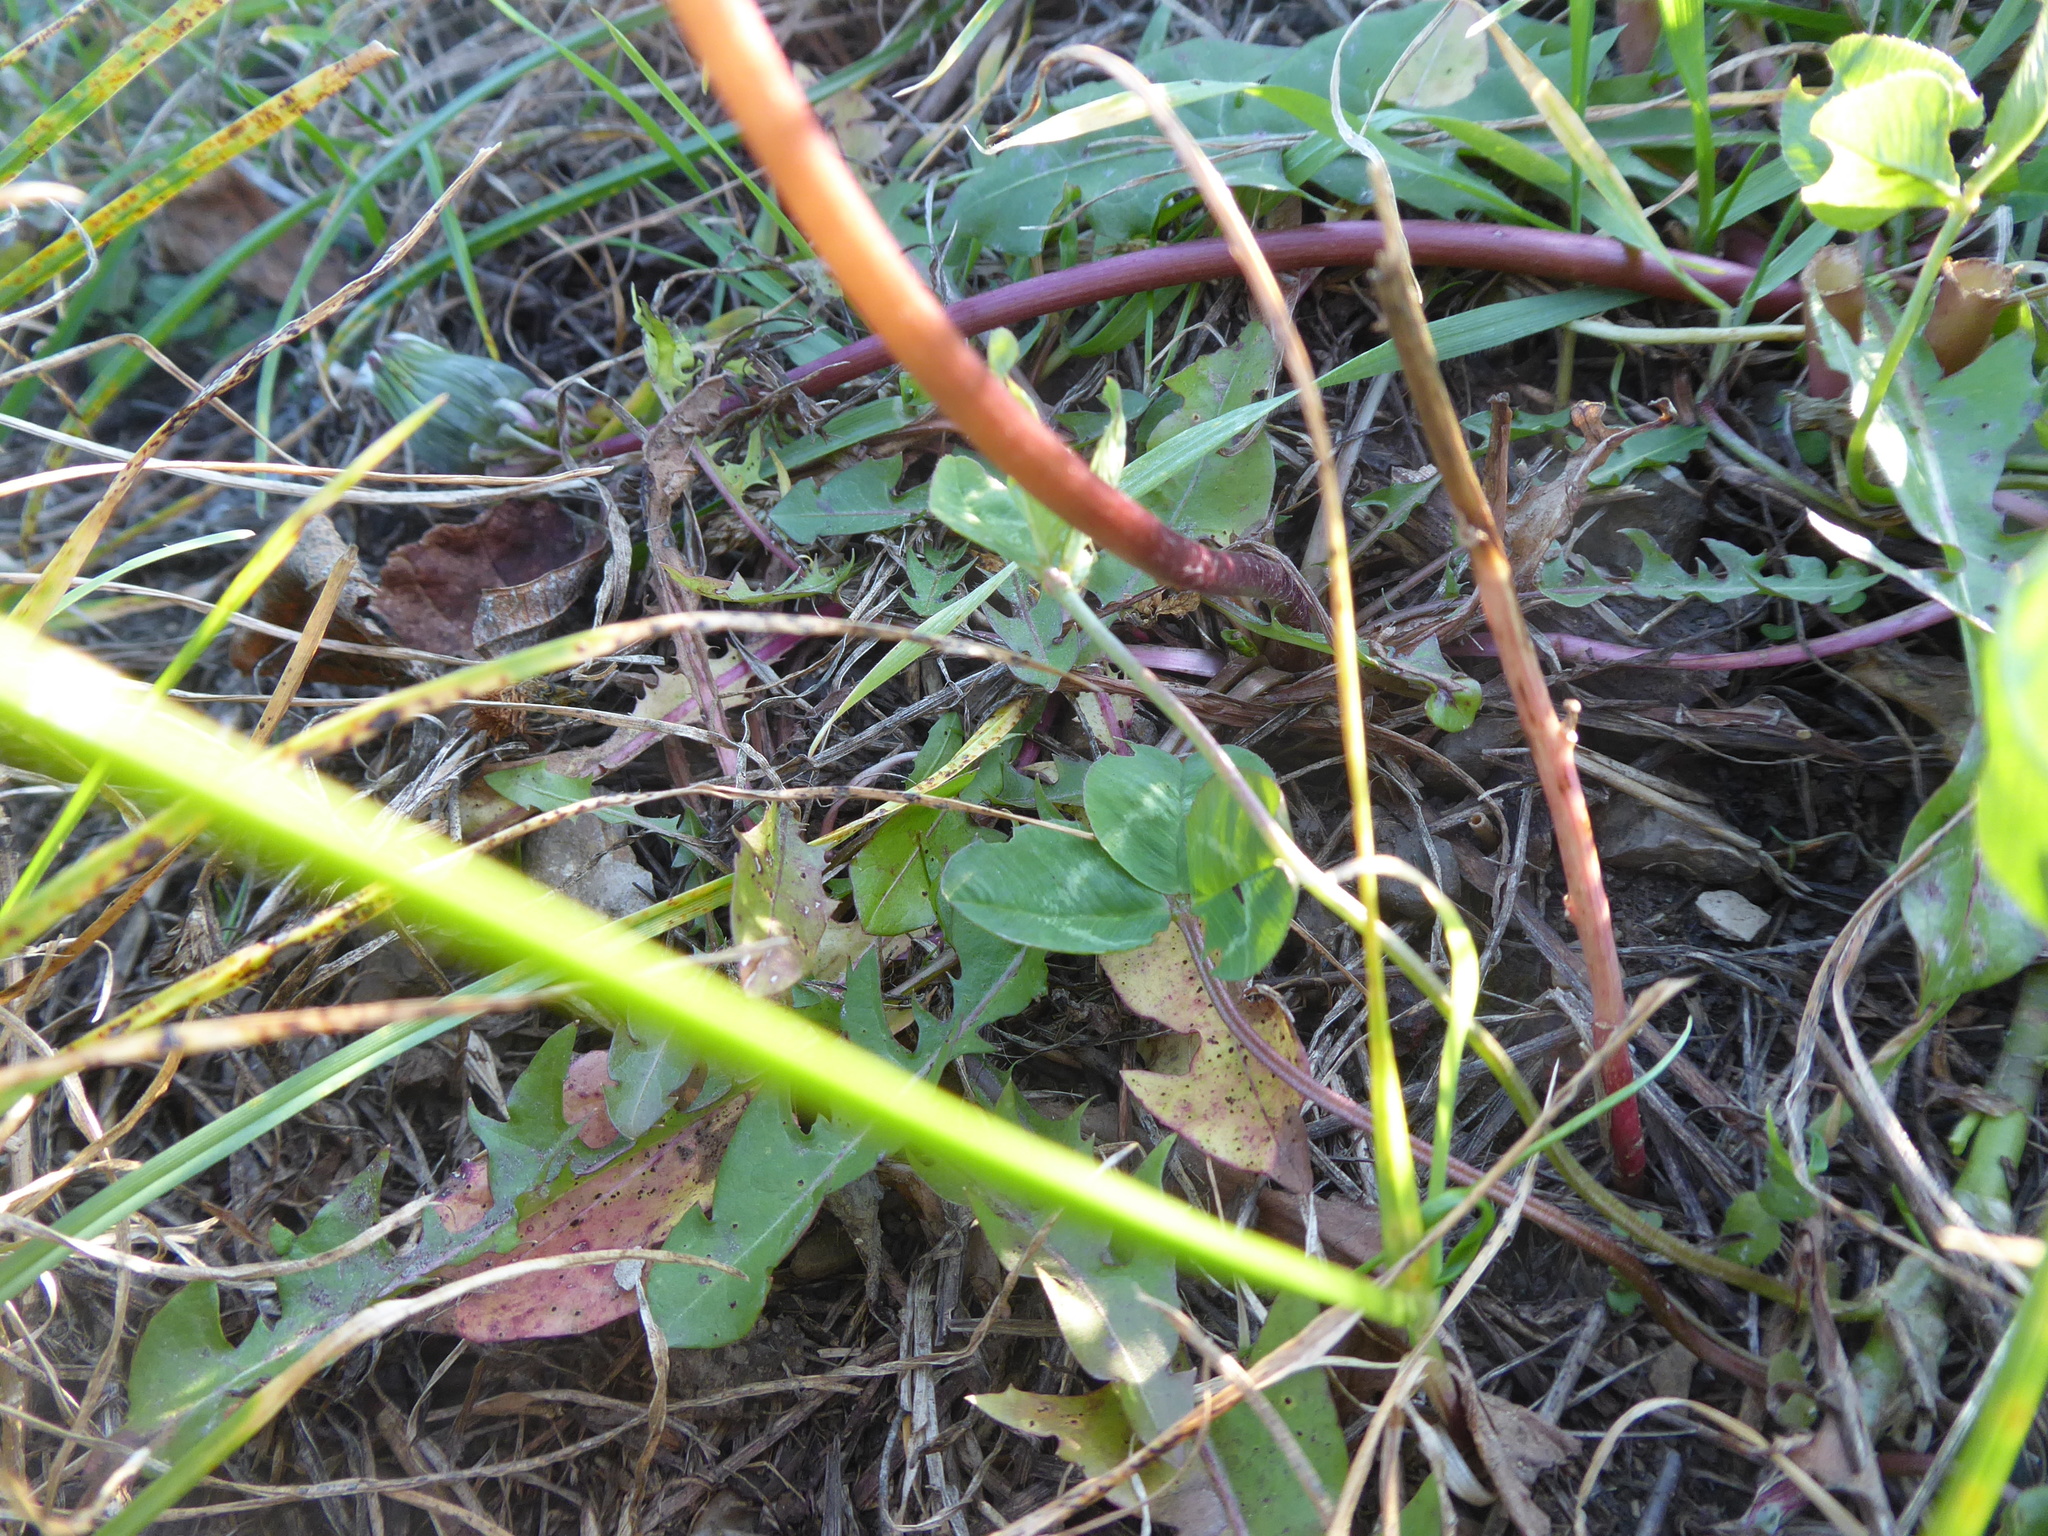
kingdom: Plantae
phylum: Tracheophyta
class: Magnoliopsida
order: Asterales
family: Asteraceae
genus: Taraxacum
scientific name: Taraxacum officinale
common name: Common dandelion
